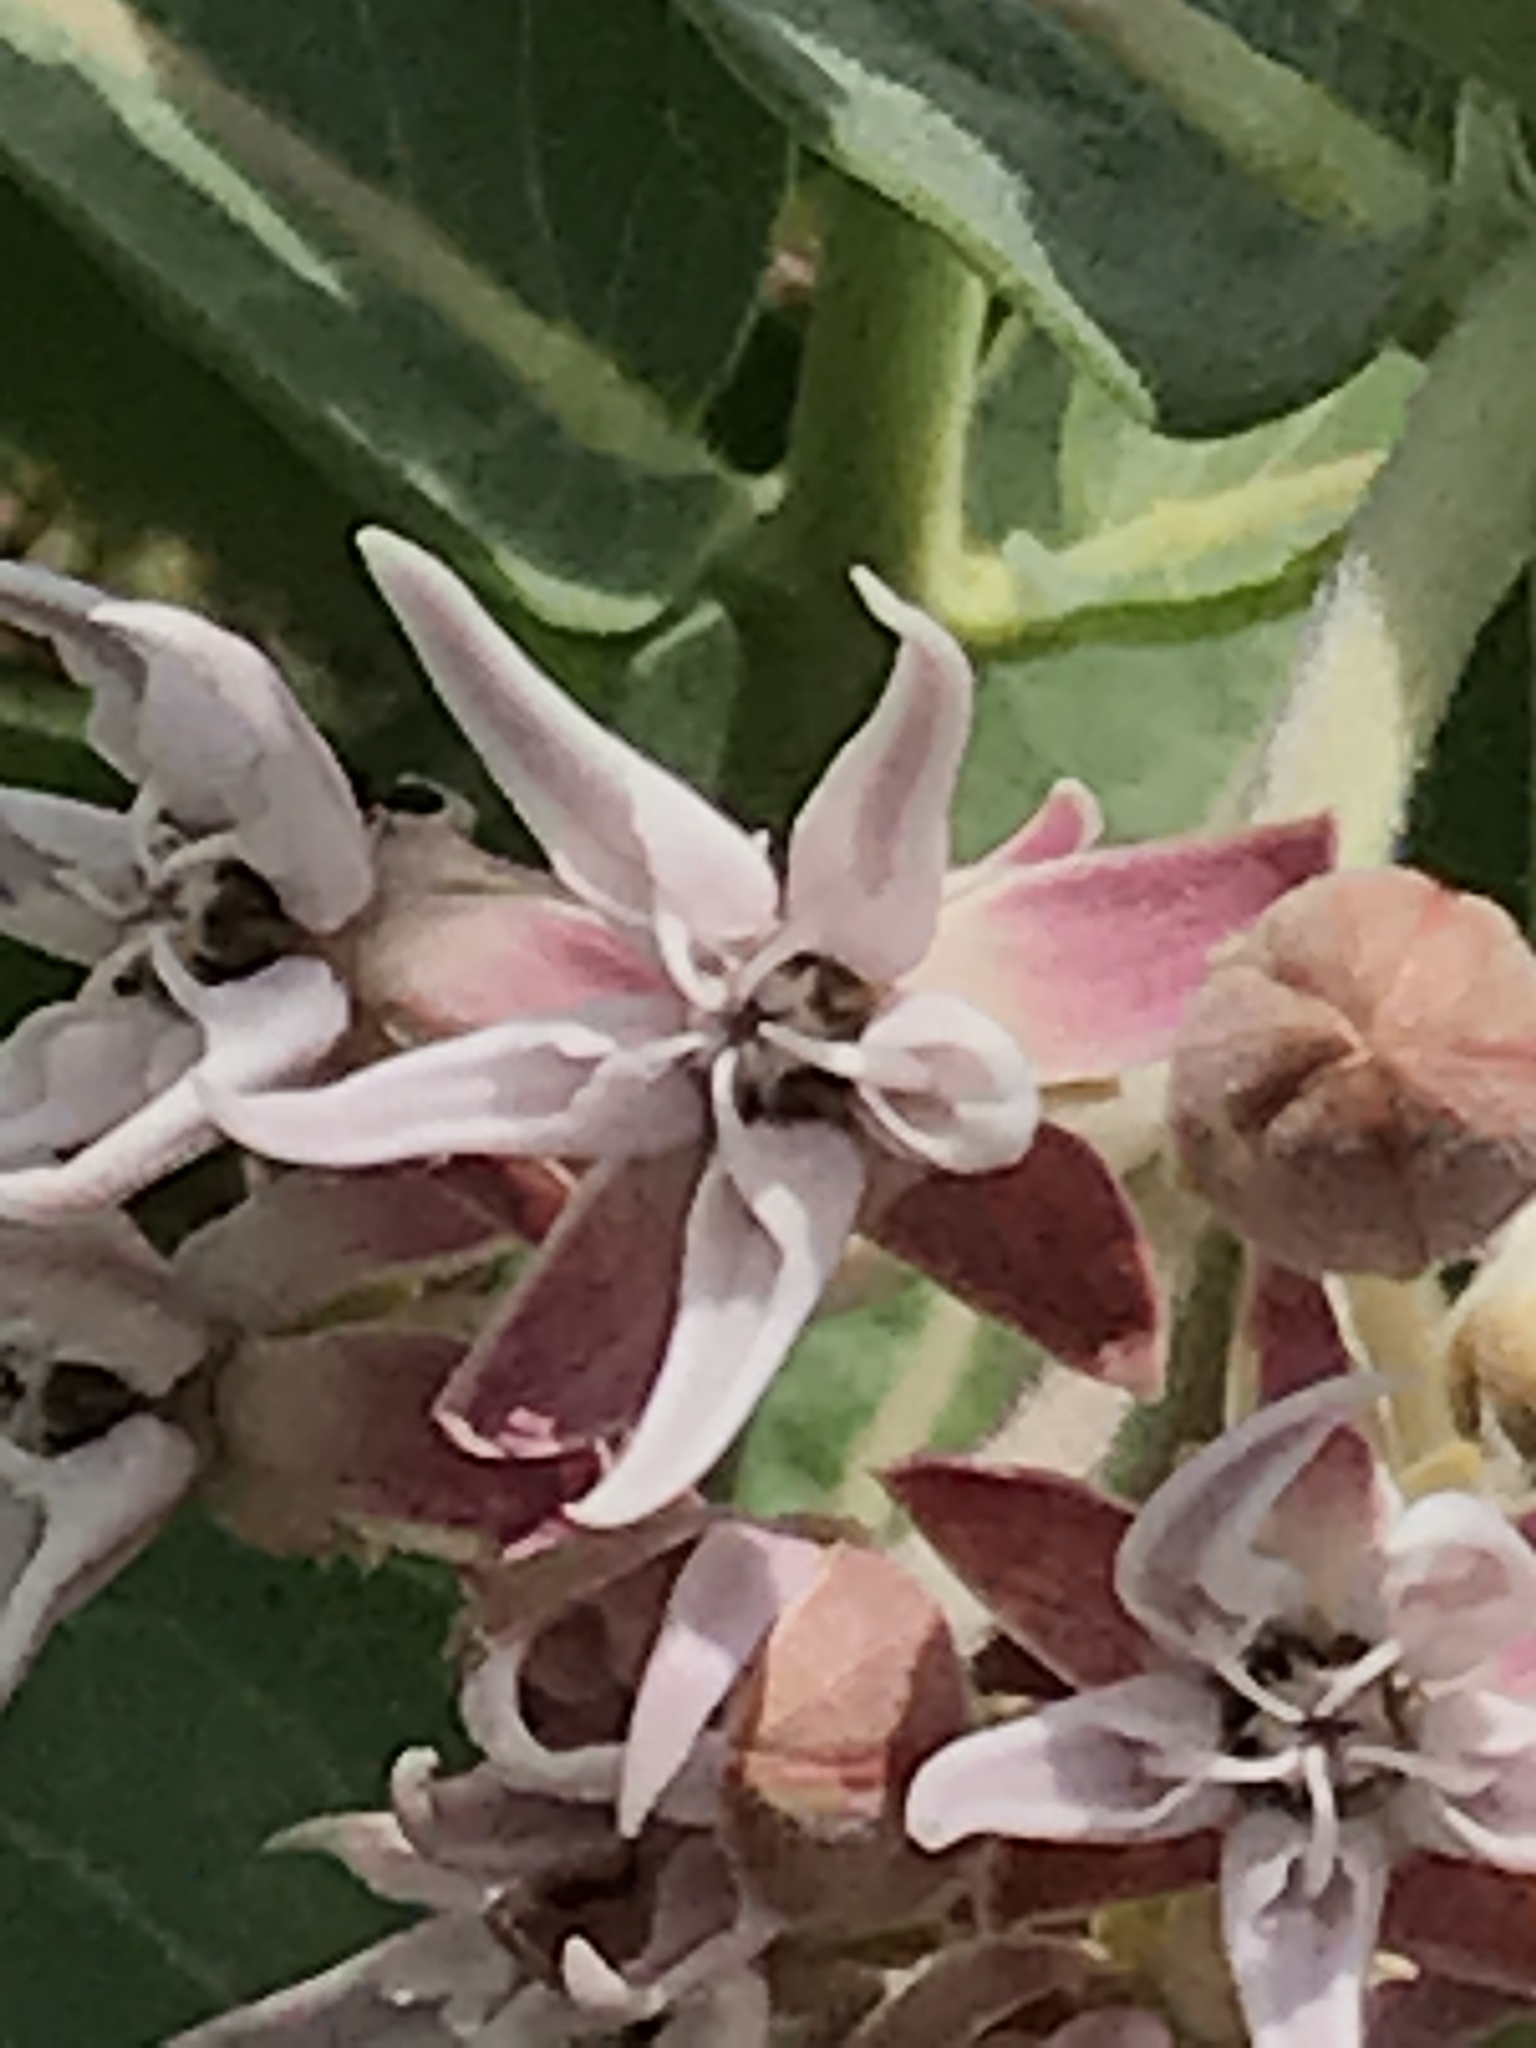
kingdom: Plantae
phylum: Tracheophyta
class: Magnoliopsida
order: Gentianales
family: Apocynaceae
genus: Asclepias
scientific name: Asclepias speciosa
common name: Showy milkweed
